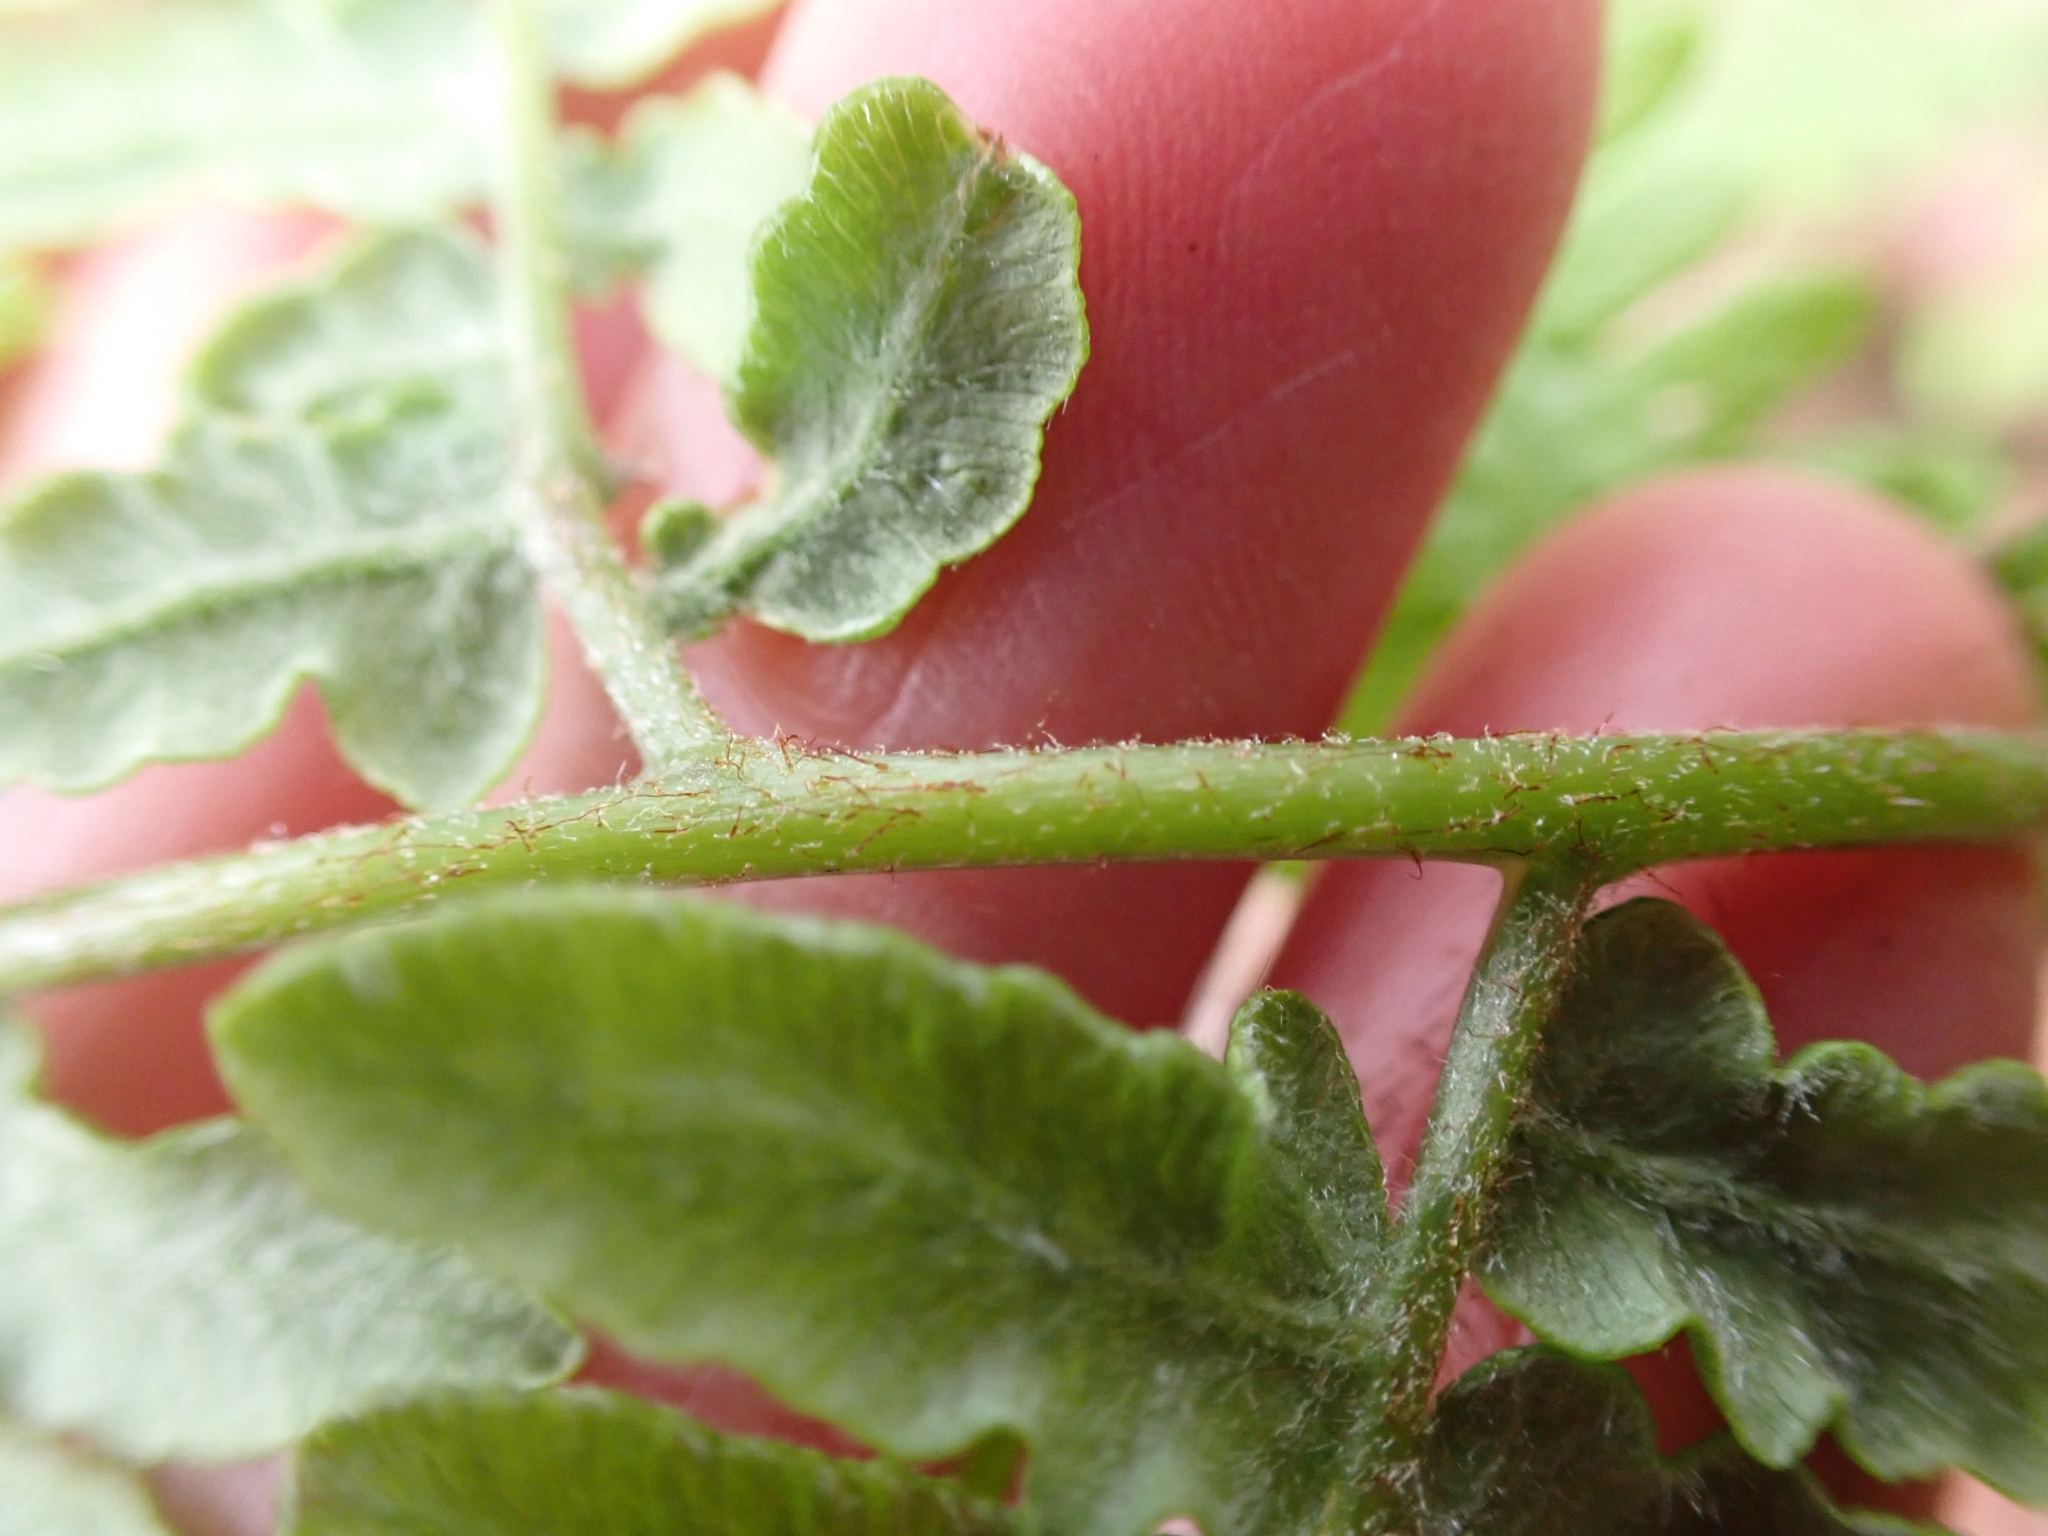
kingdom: Plantae
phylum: Tracheophyta
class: Polypodiopsida
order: Polypodiales
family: Dennstaedtiaceae
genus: Pteridium
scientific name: Pteridium aquilinum
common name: Bracken
